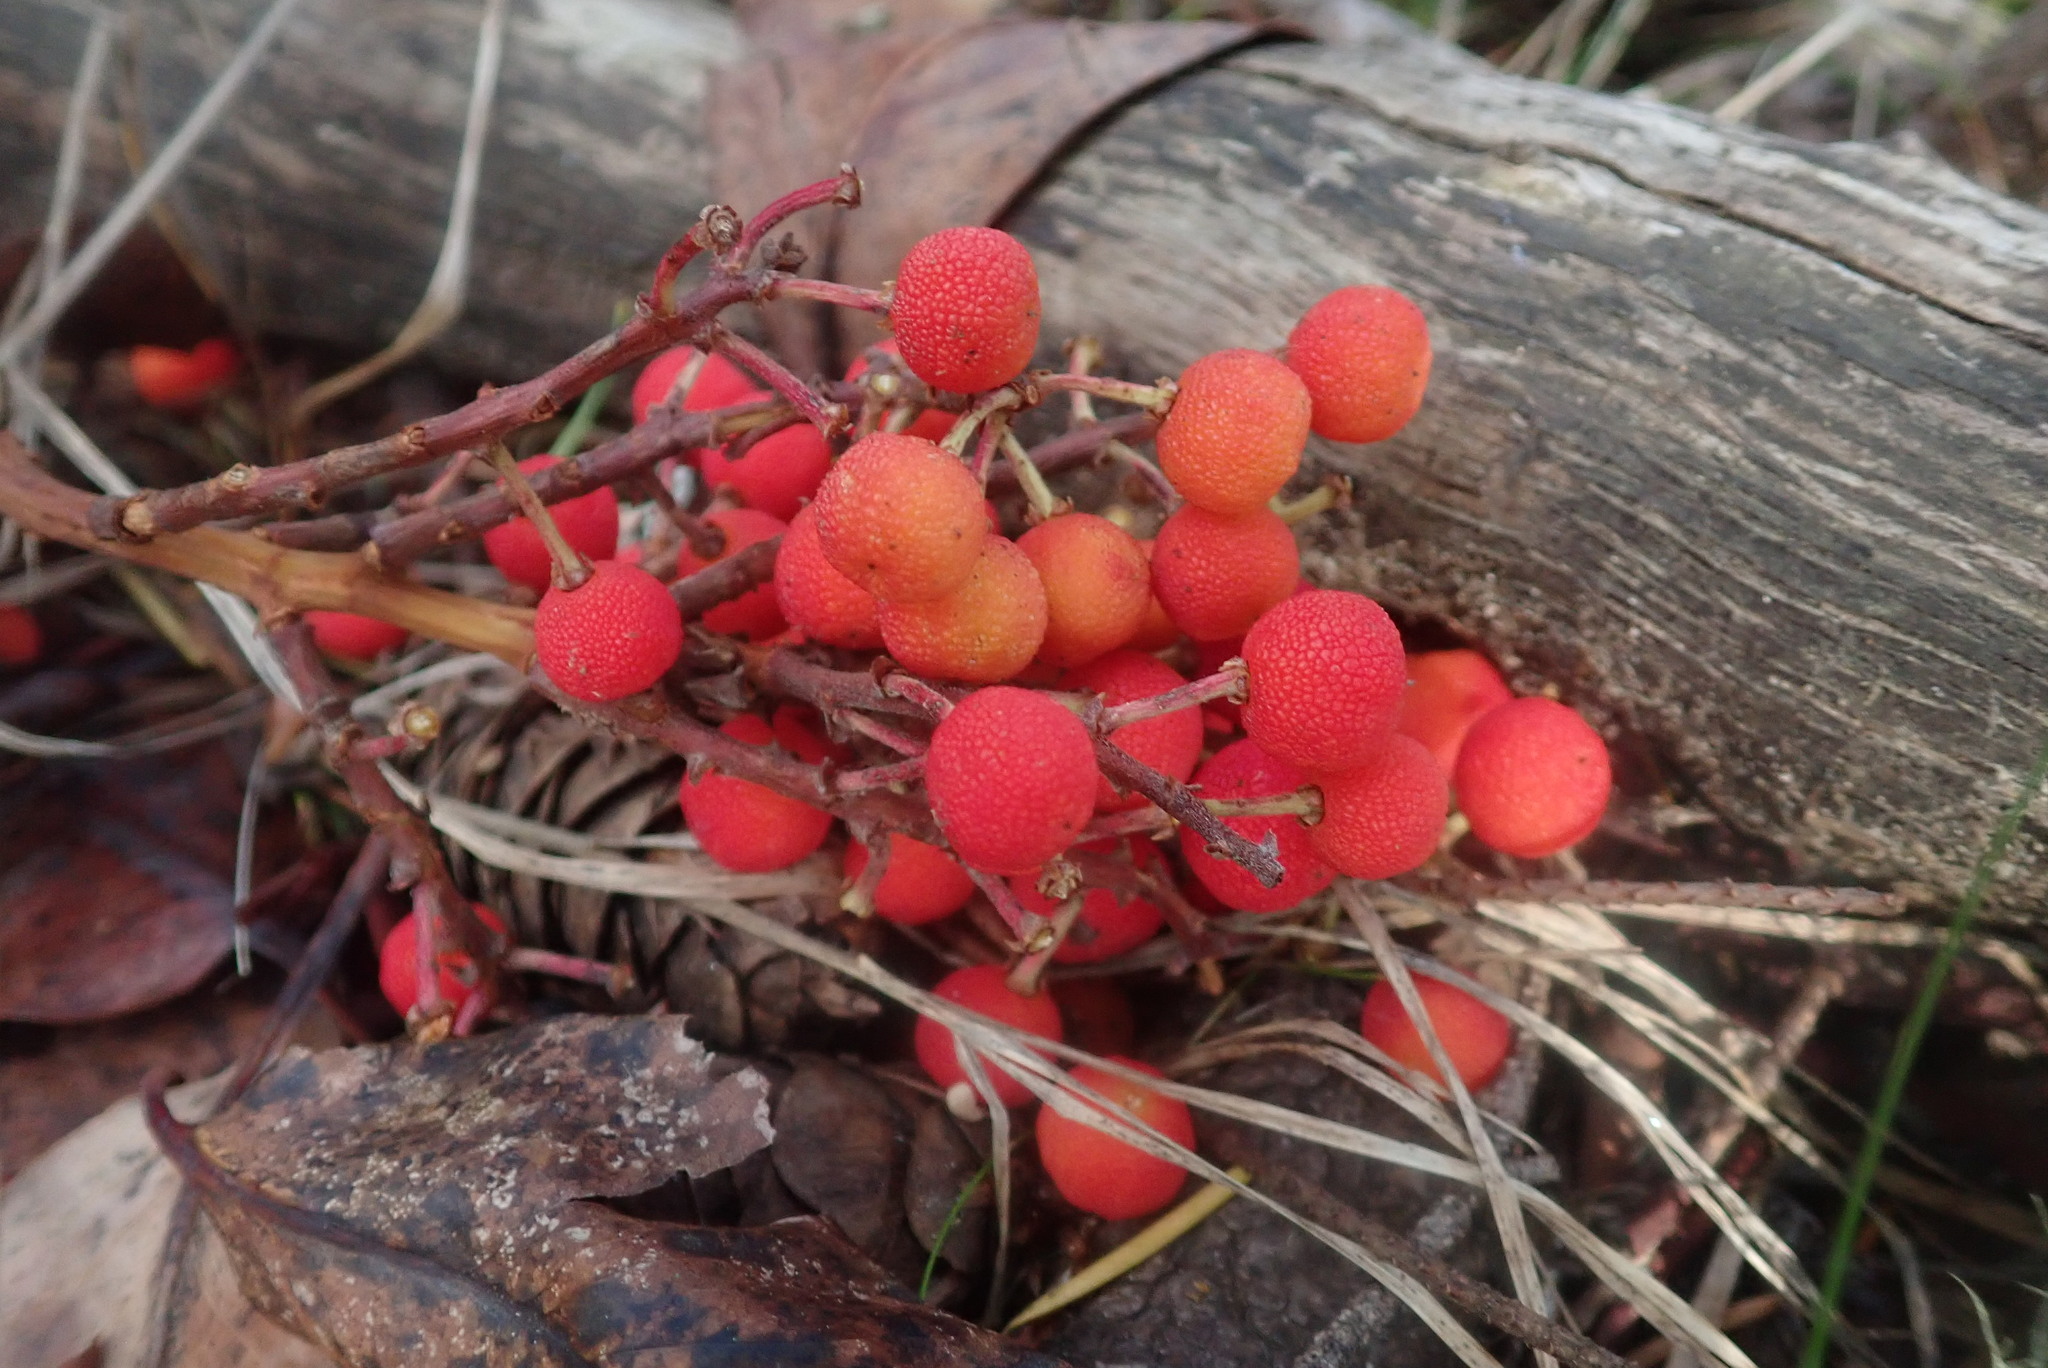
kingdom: Plantae
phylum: Tracheophyta
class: Magnoliopsida
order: Ericales
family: Ericaceae
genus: Arbutus
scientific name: Arbutus menziesii
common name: Pacific madrone
